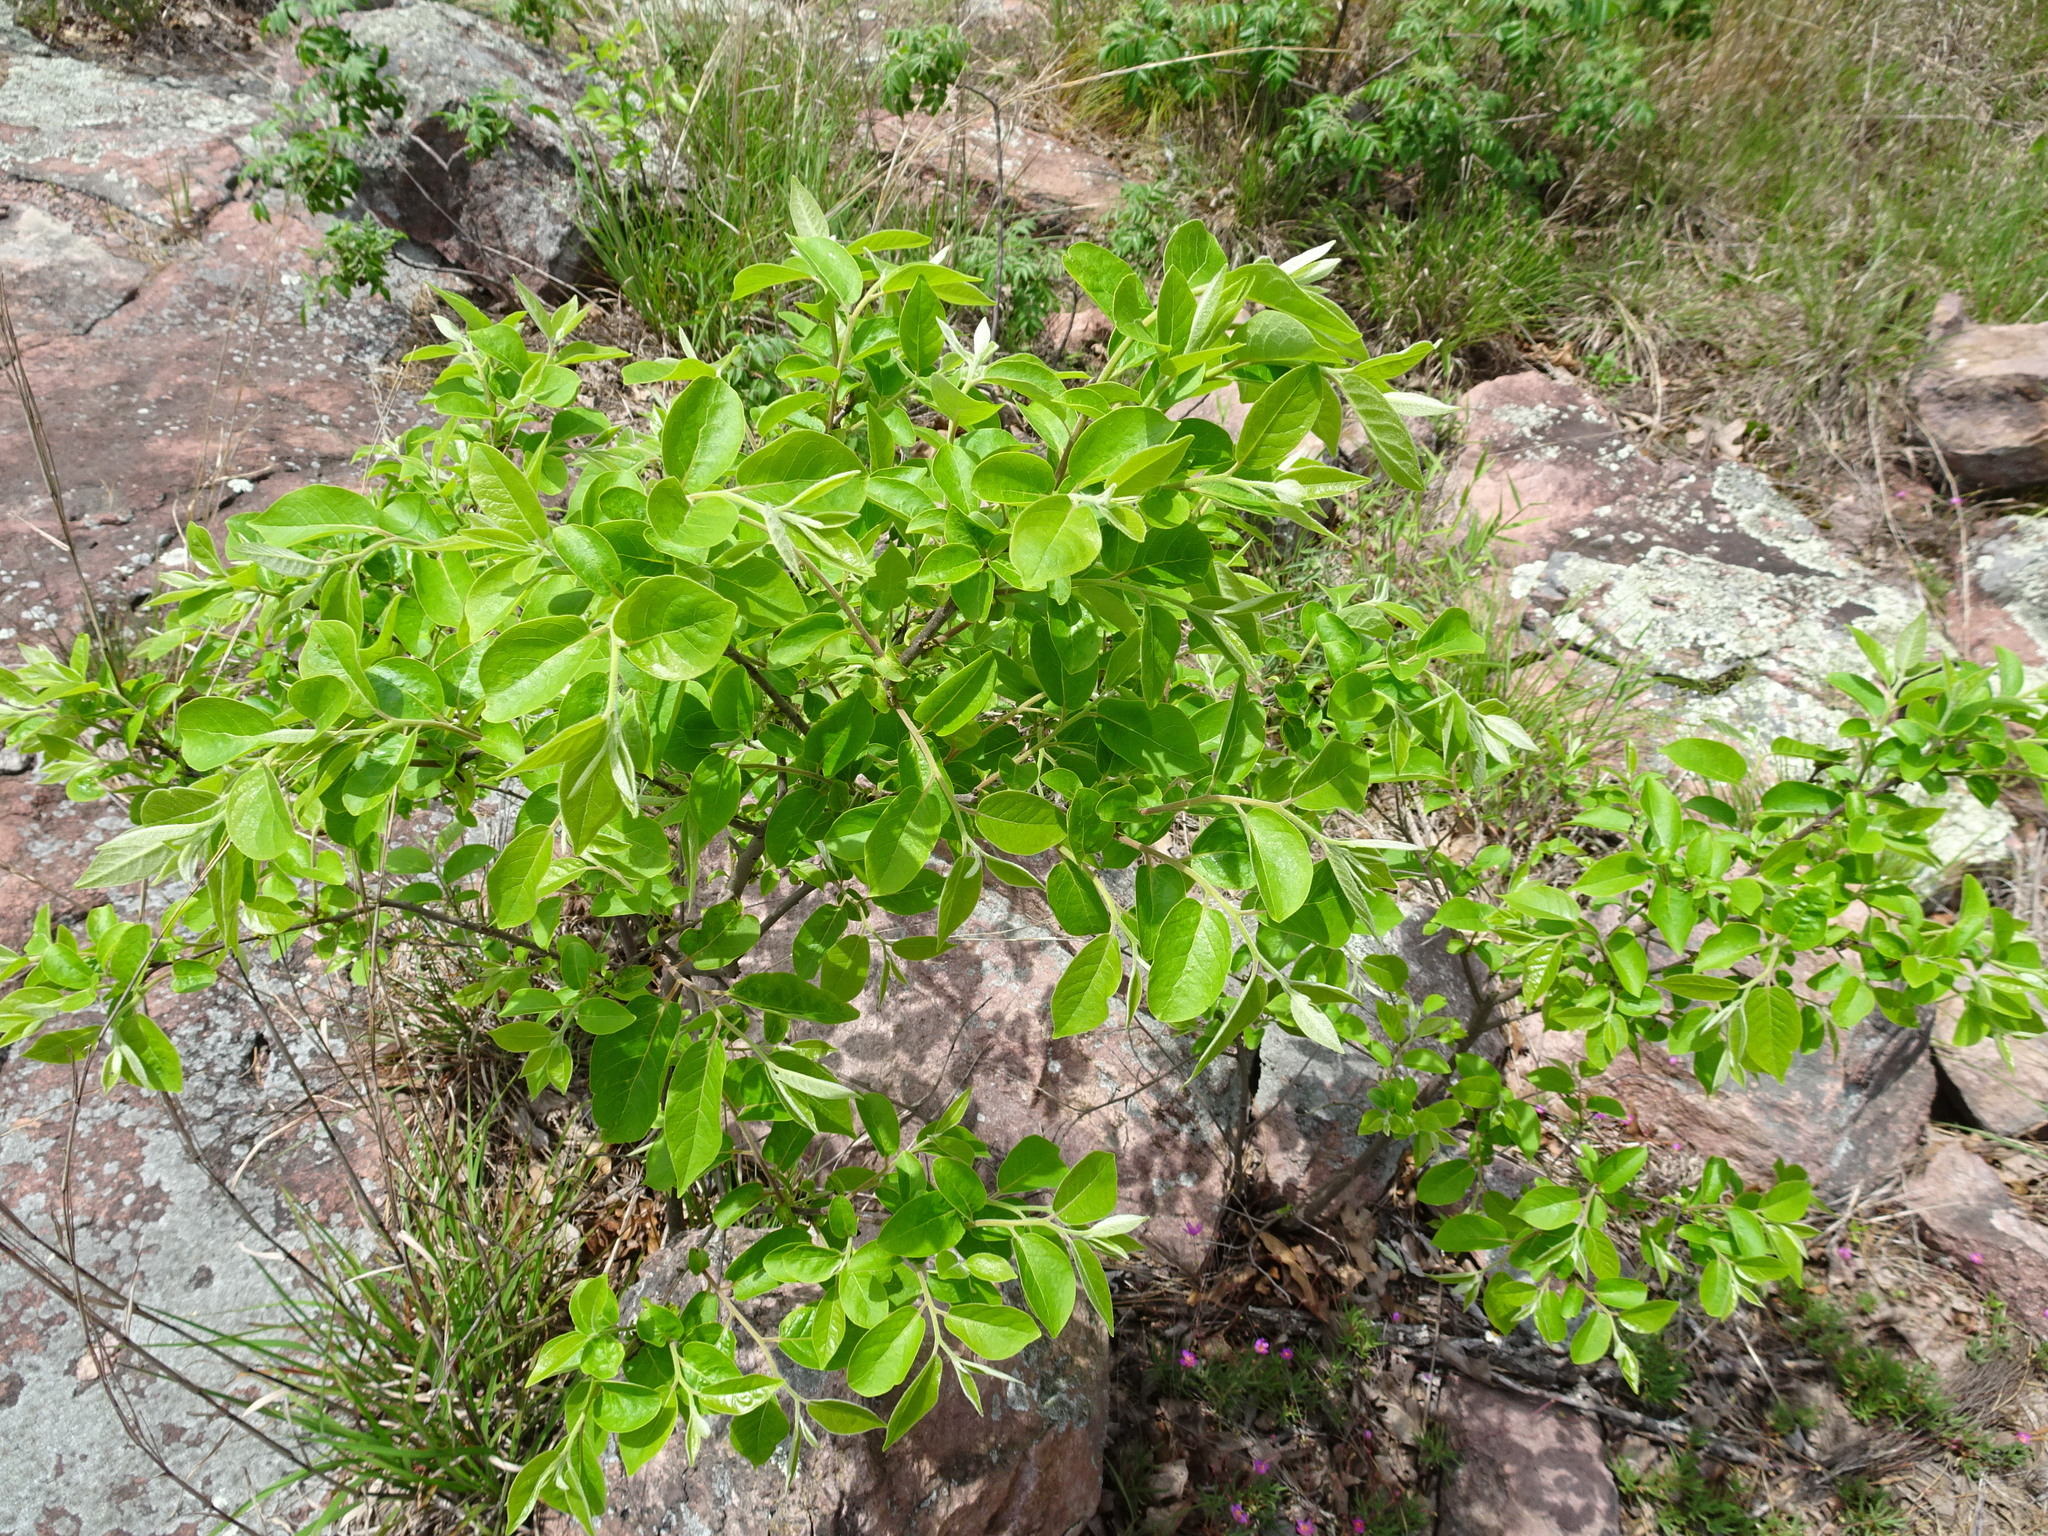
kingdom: Plantae
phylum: Tracheophyta
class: Magnoliopsida
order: Ericales
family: Ebenaceae
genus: Diospyros
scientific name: Diospyros virginiana
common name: Persimmon
